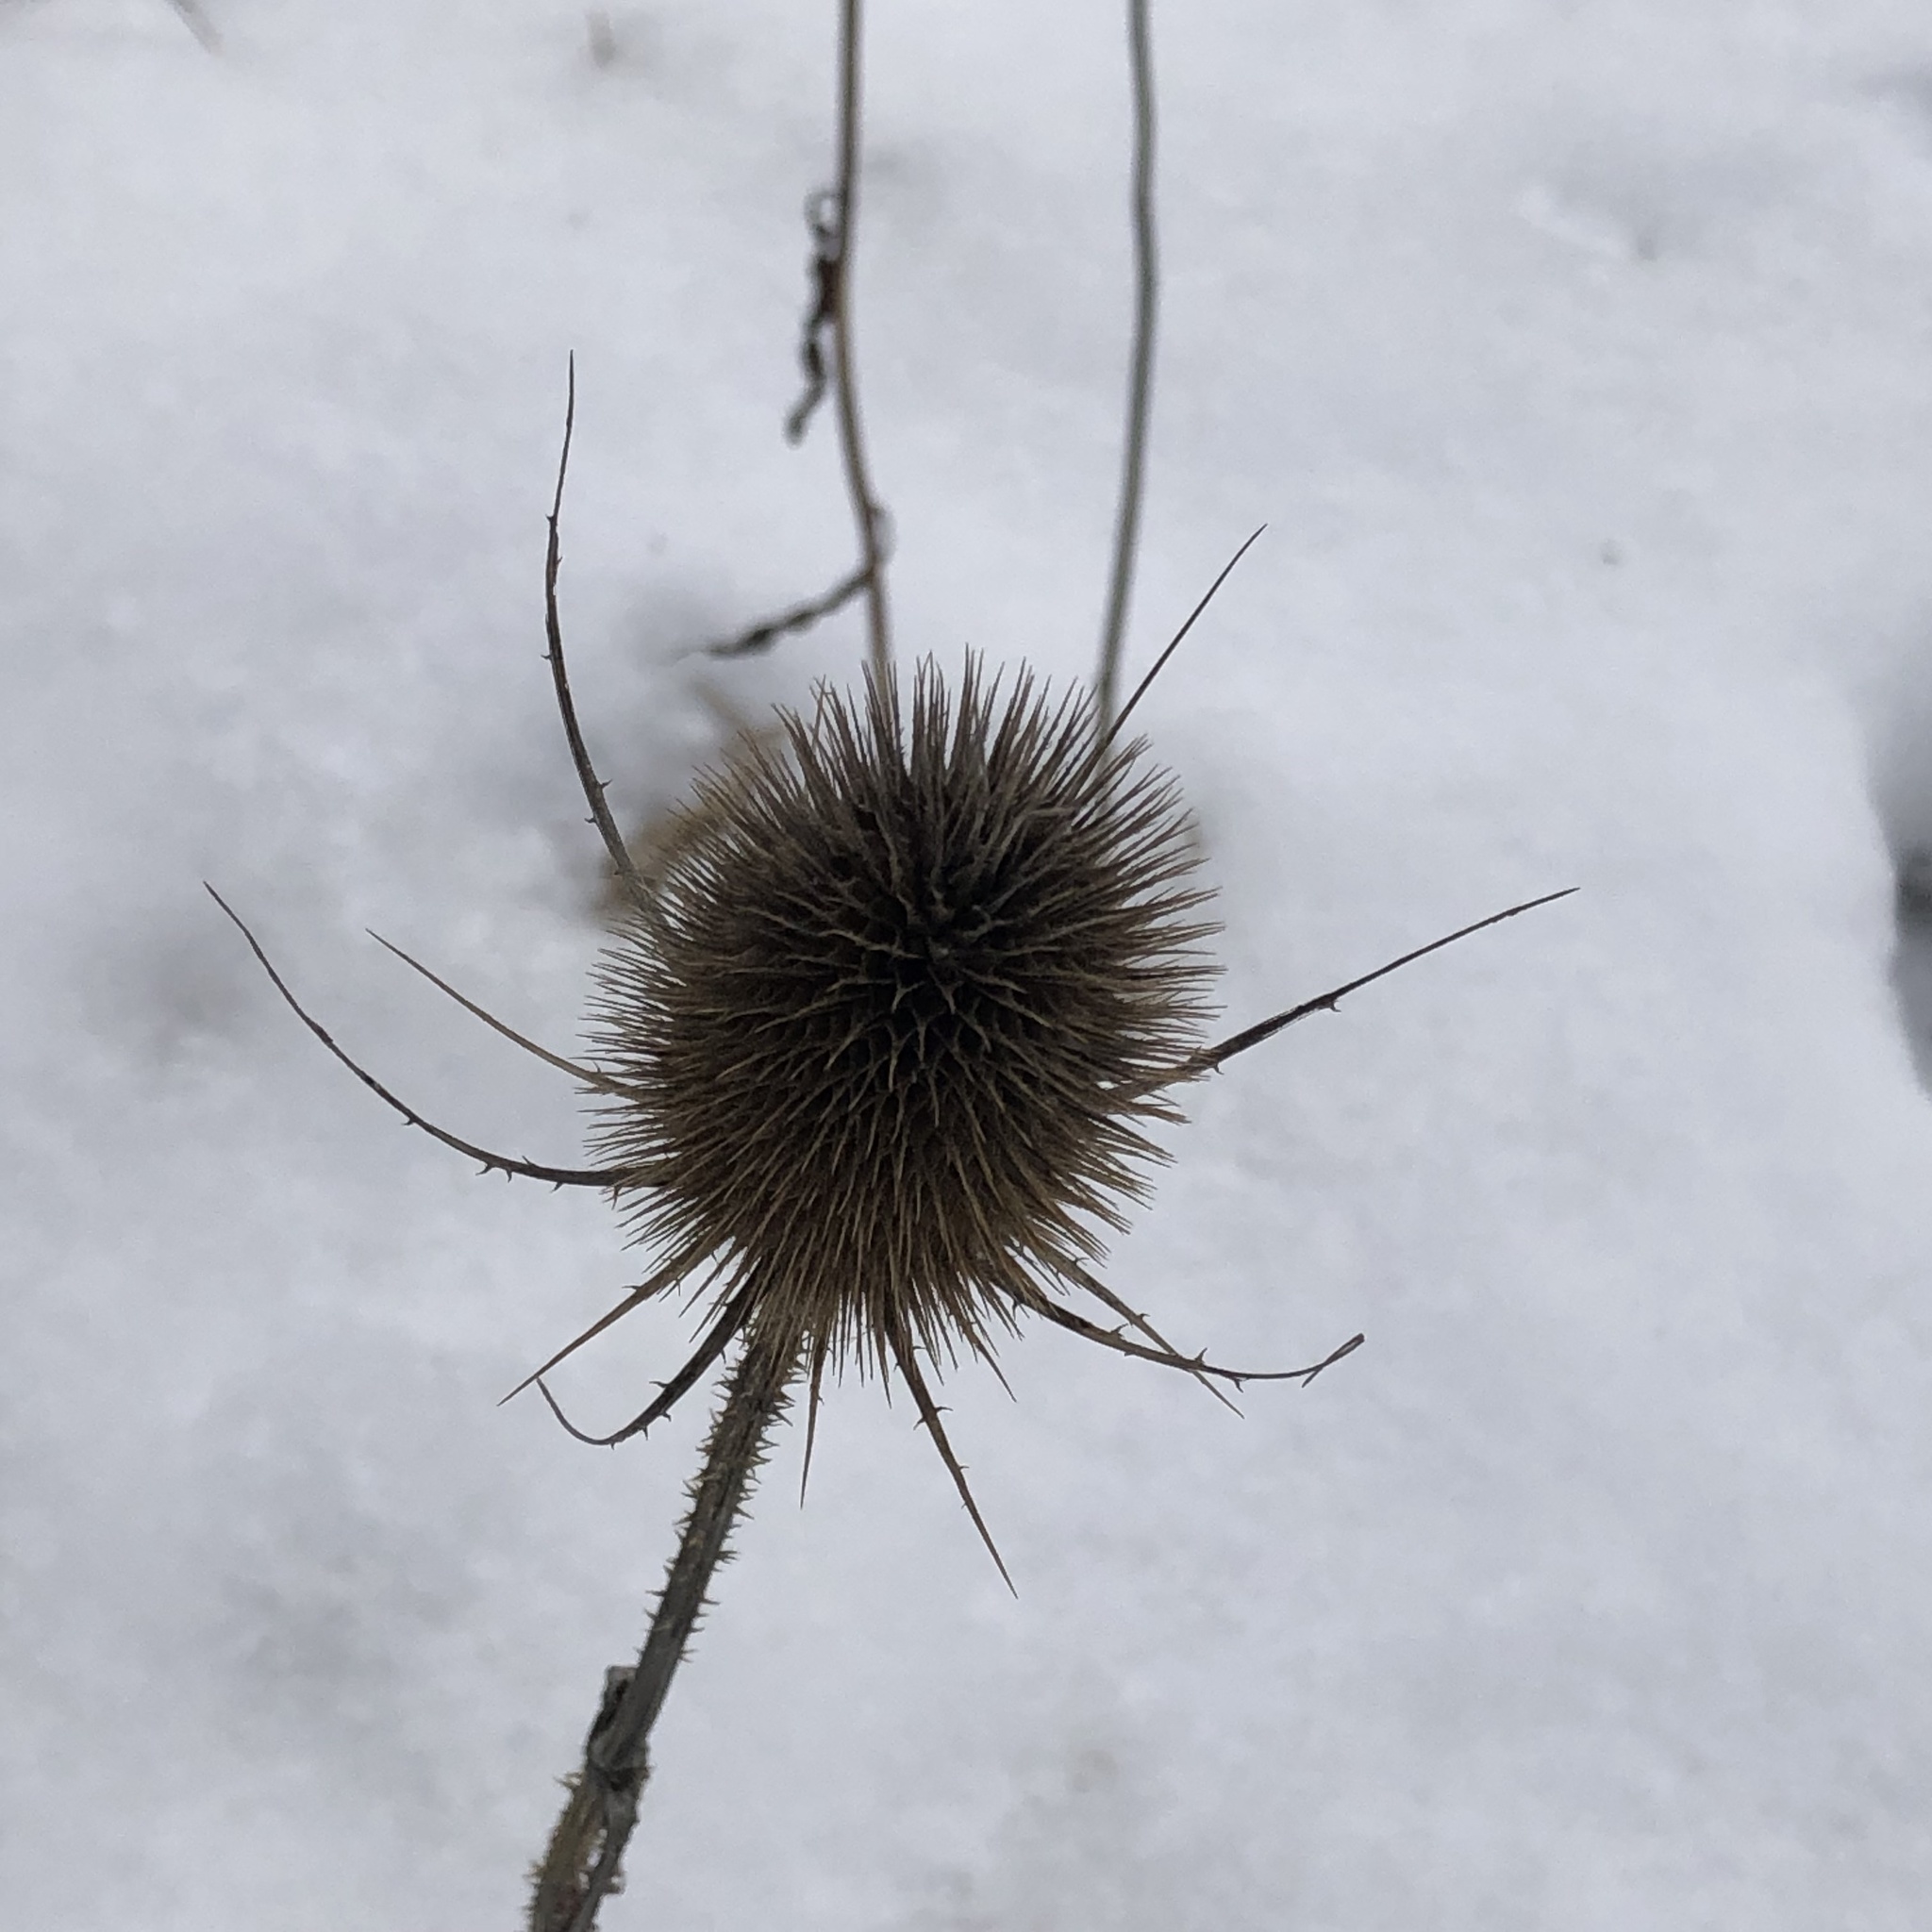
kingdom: Plantae
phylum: Tracheophyta
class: Magnoliopsida
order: Dipsacales
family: Caprifoliaceae
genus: Dipsacus
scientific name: Dipsacus fullonum
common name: Teasel
